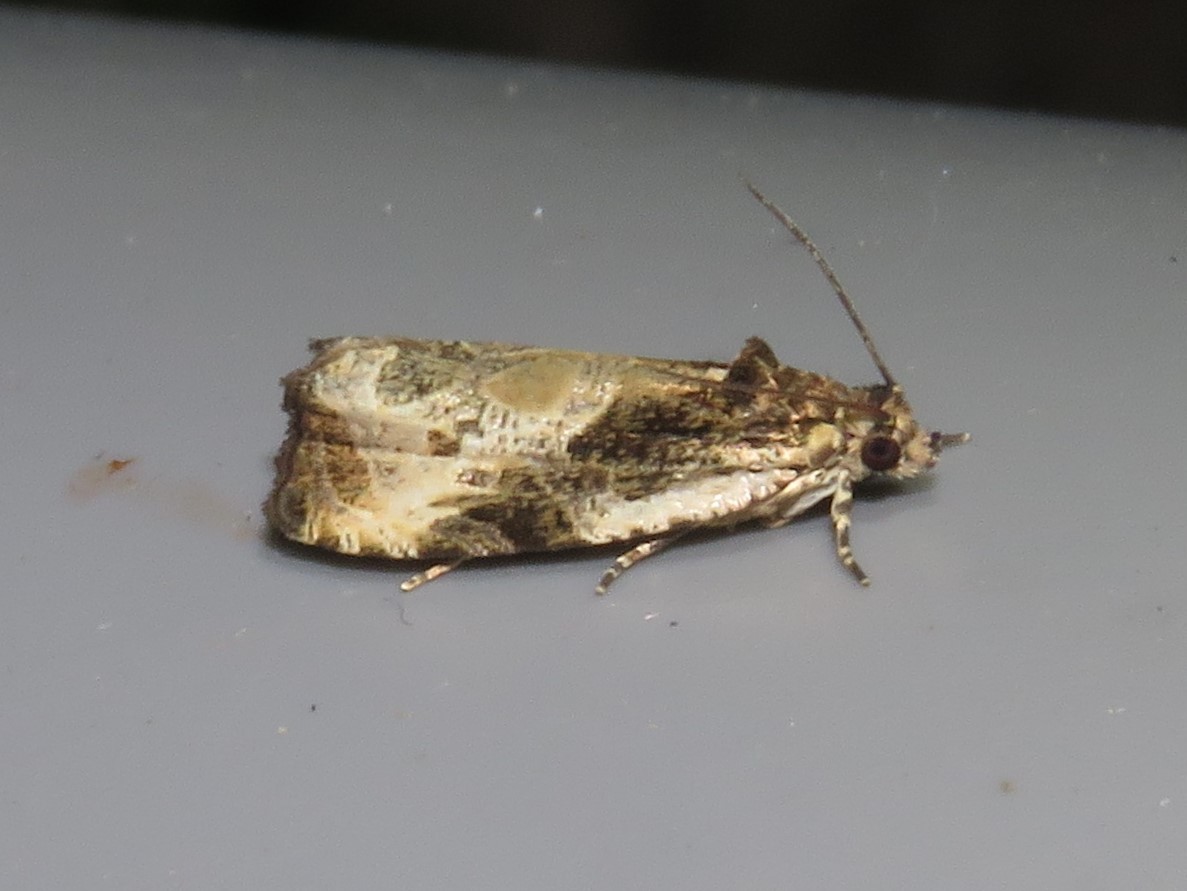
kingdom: Animalia
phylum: Arthropoda
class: Insecta
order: Lepidoptera
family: Tortricidae
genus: Olethreutes
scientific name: Olethreutes connectum
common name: Bunchberry leaffolder moth
